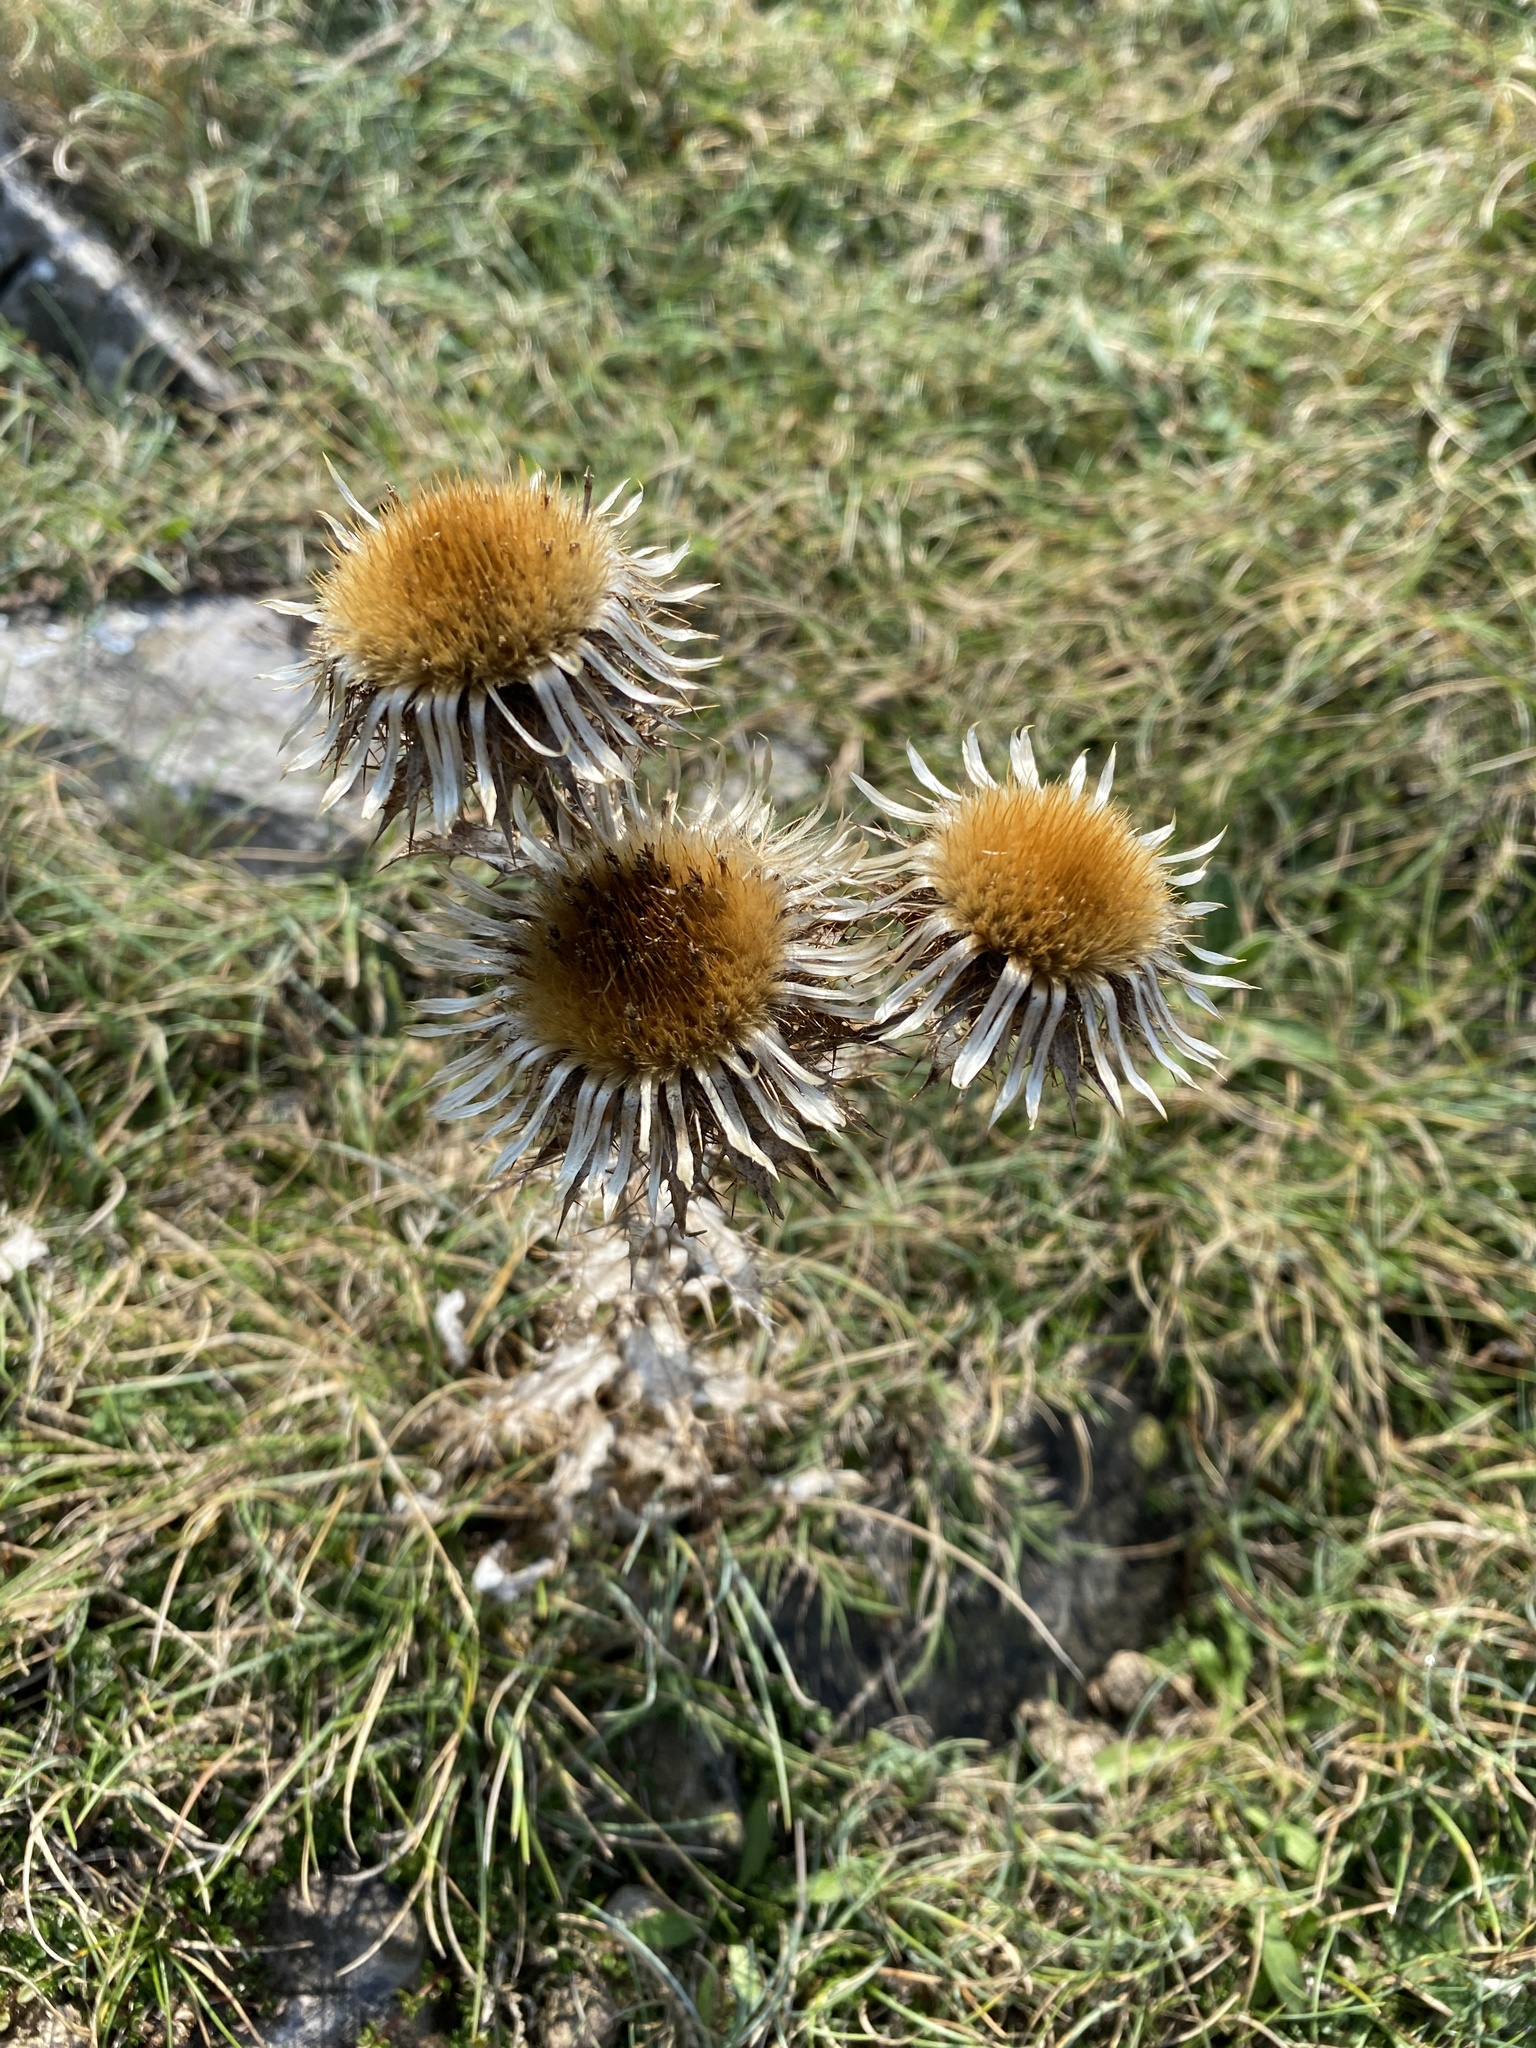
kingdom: Plantae
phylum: Tracheophyta
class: Magnoliopsida
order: Asterales
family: Asteraceae
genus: Carlina
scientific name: Carlina vulgaris
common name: Carline thistle
